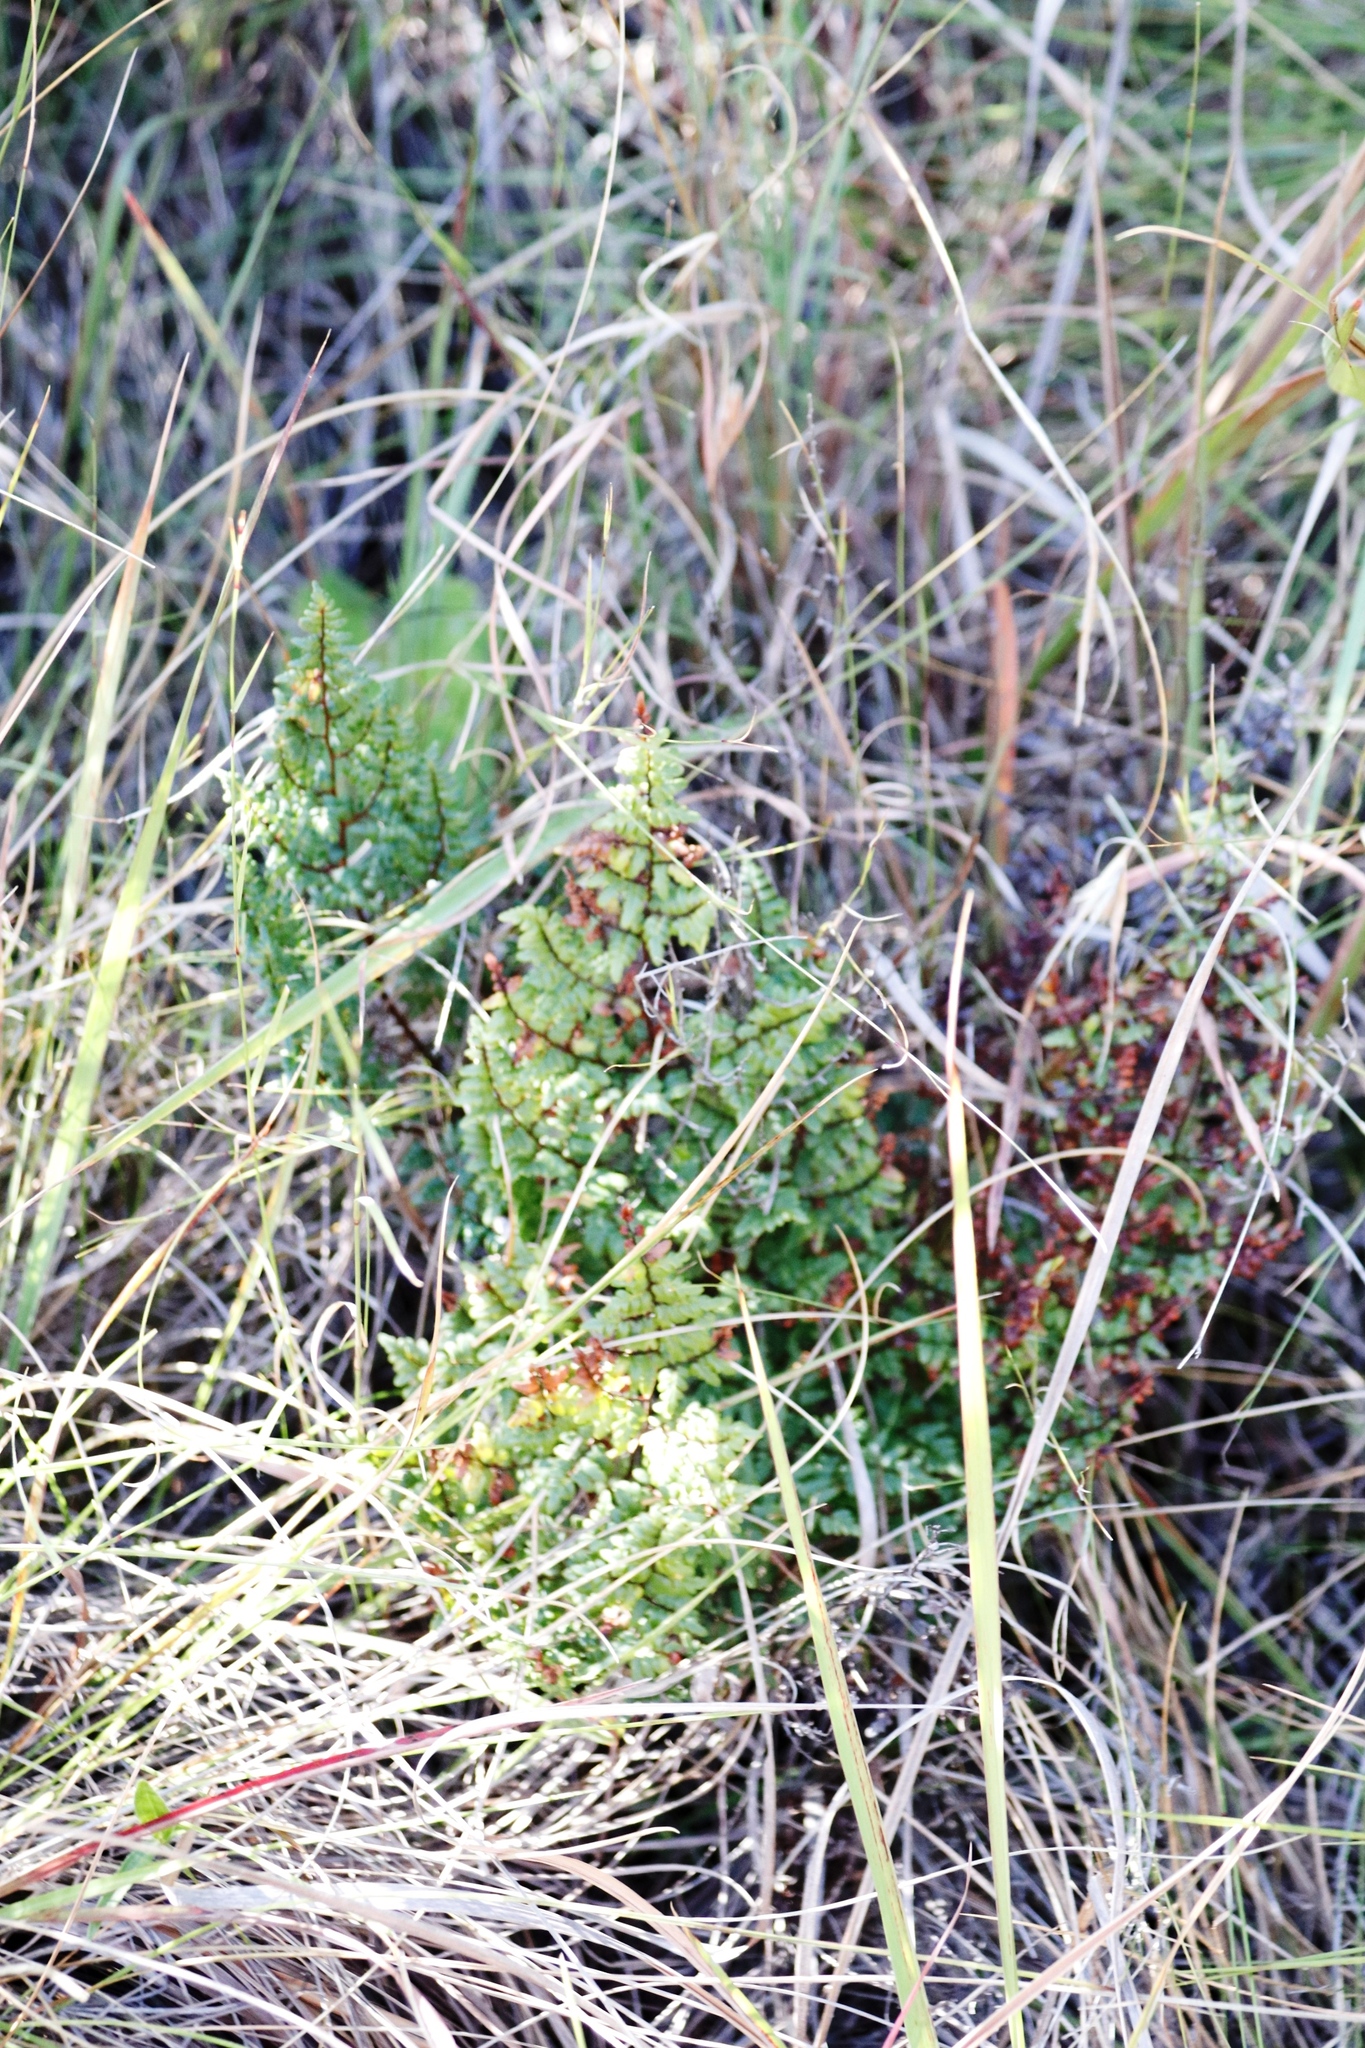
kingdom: Plantae
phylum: Tracheophyta
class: Polypodiopsida
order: Polypodiales
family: Pteridaceae
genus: Cheilanthes
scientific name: Cheilanthes quadripinnata
